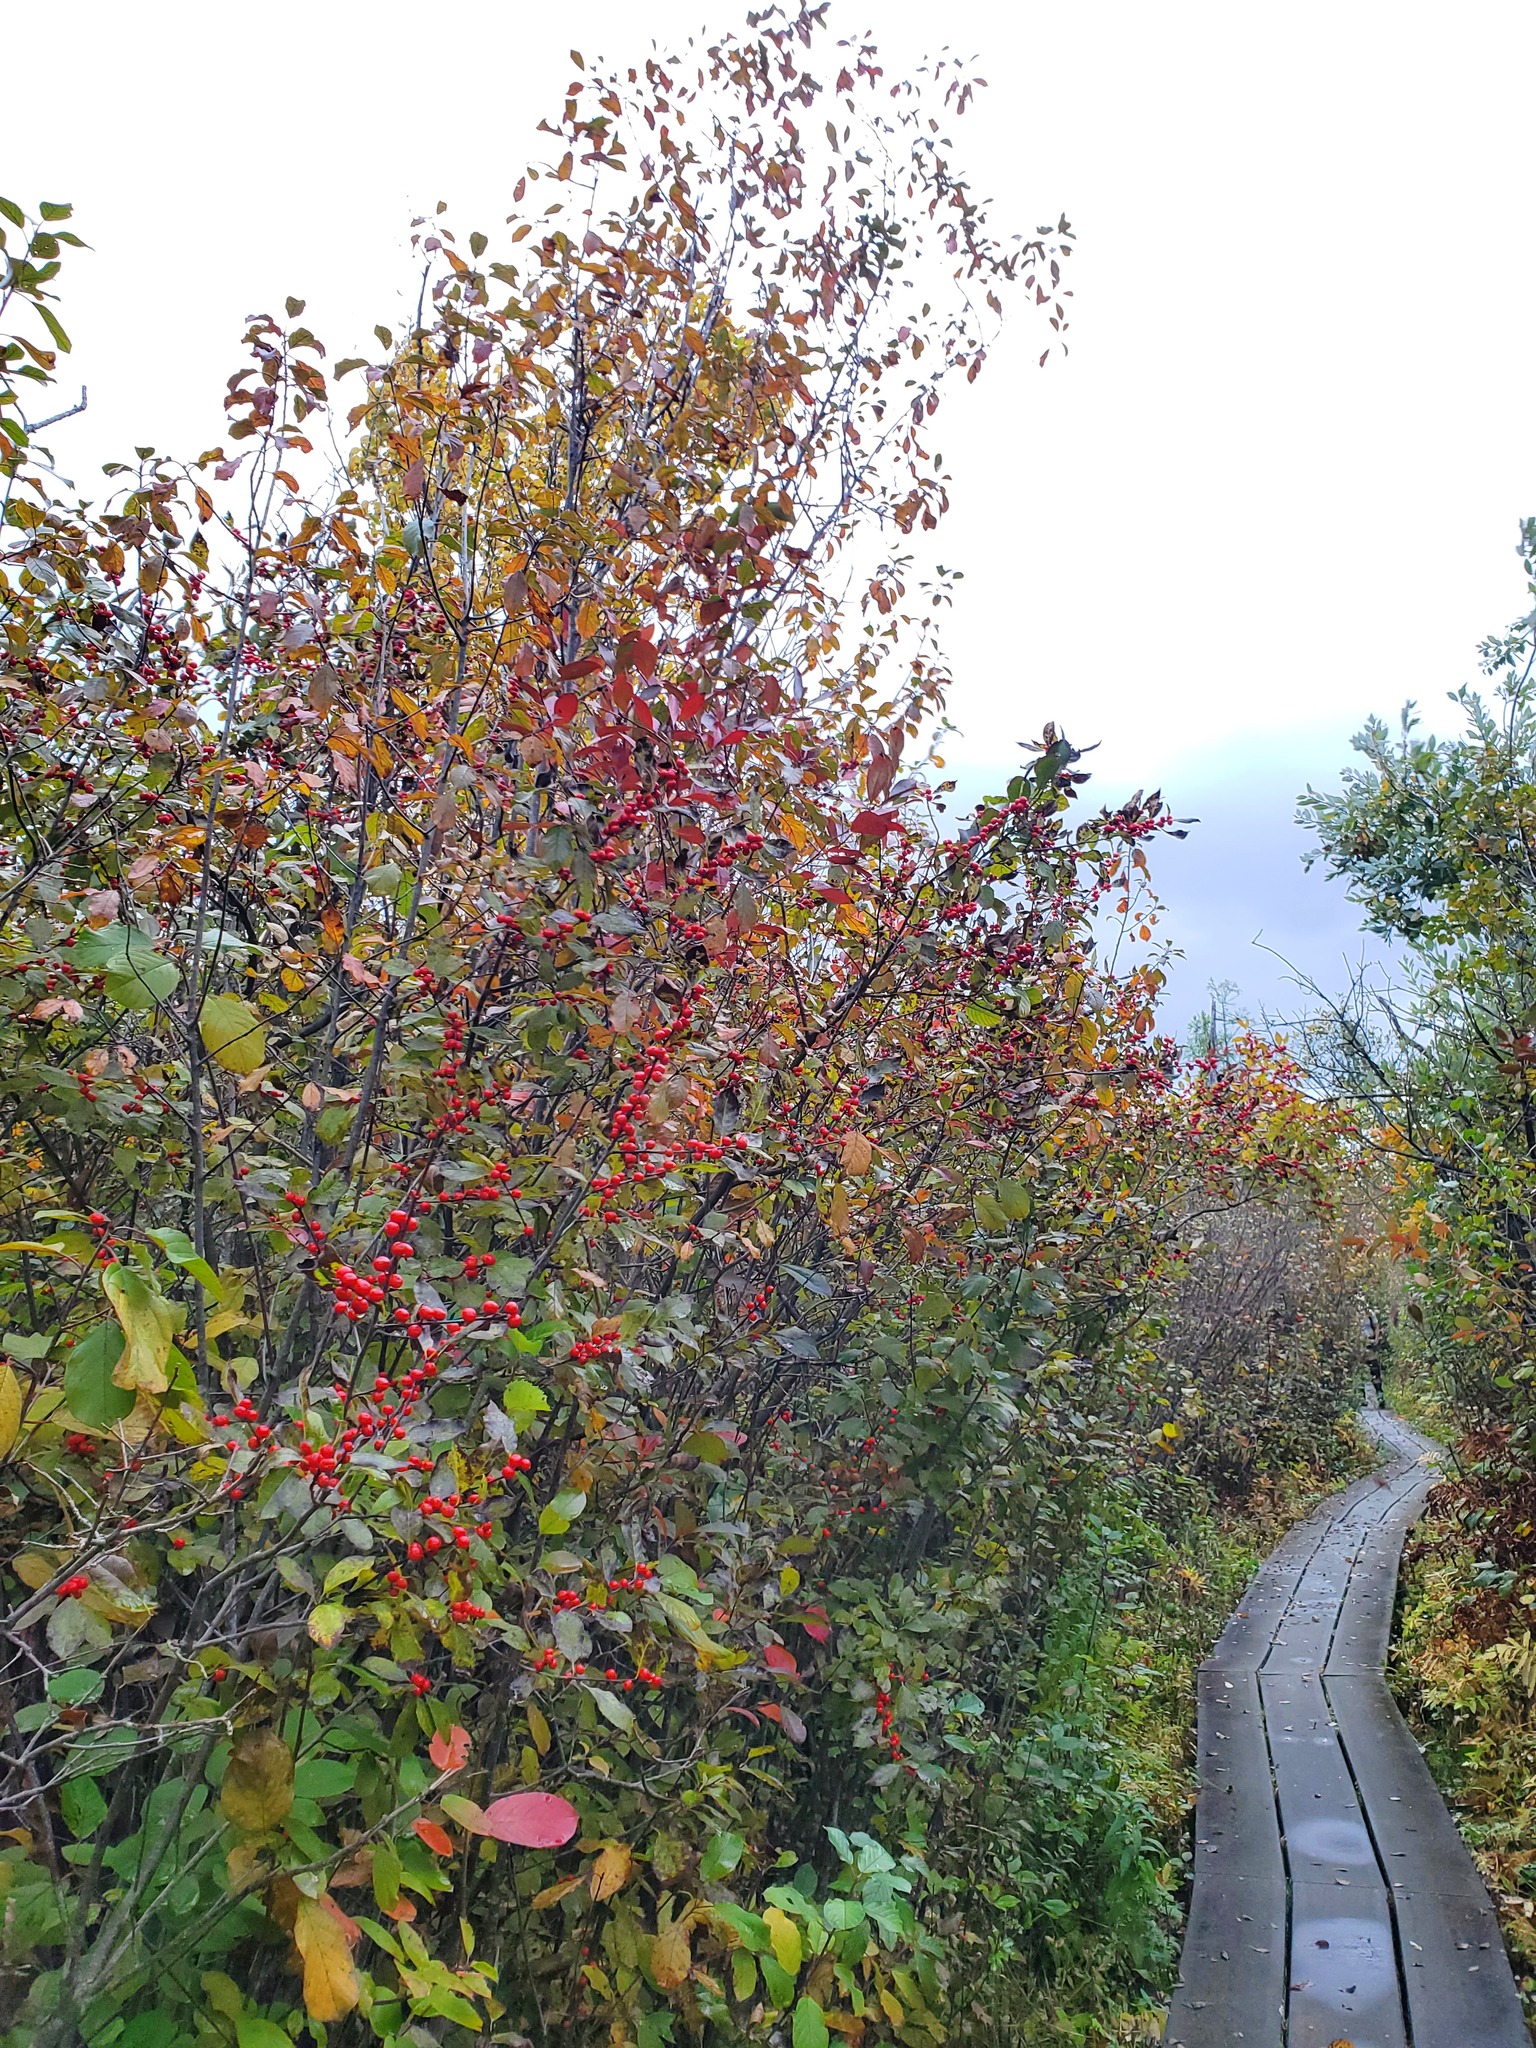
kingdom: Plantae
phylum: Tracheophyta
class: Magnoliopsida
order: Aquifoliales
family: Aquifoliaceae
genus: Ilex
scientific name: Ilex verticillata
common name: Virginia winterberry
